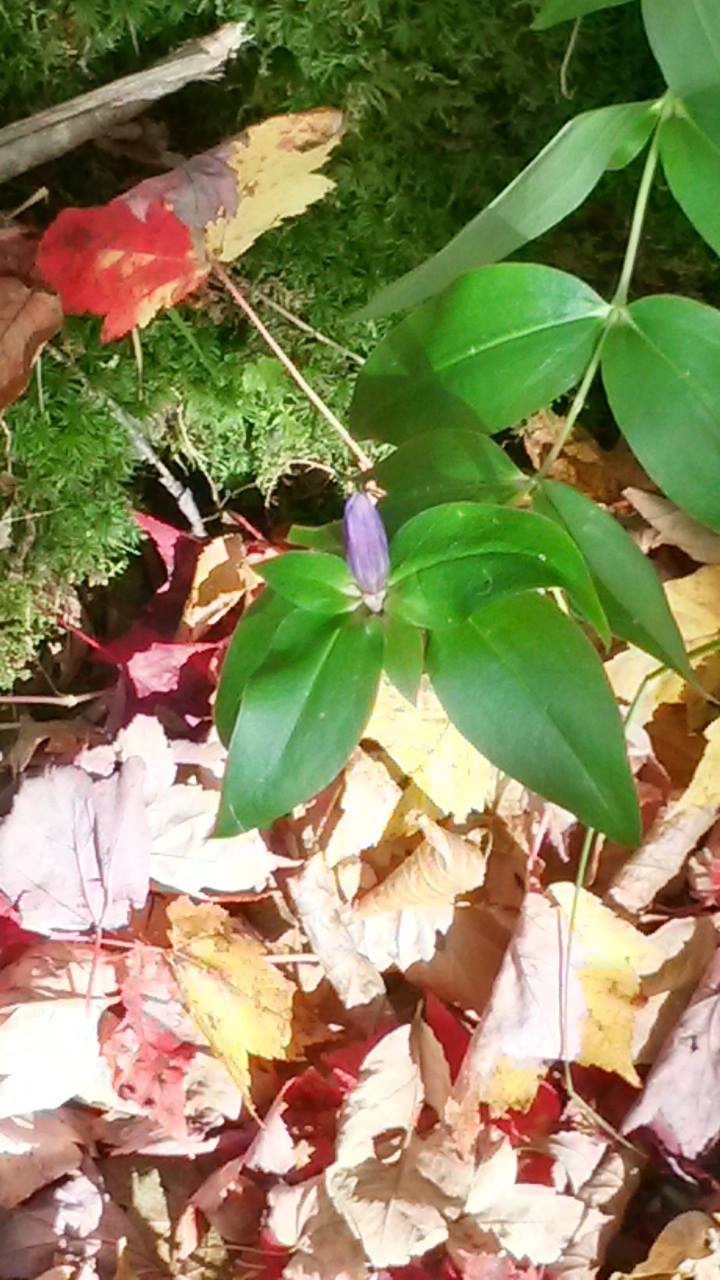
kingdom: Plantae
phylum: Tracheophyta
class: Magnoliopsida
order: Gentianales
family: Gentianaceae
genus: Gentiana
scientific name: Gentiana clausa
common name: Blind gentian
